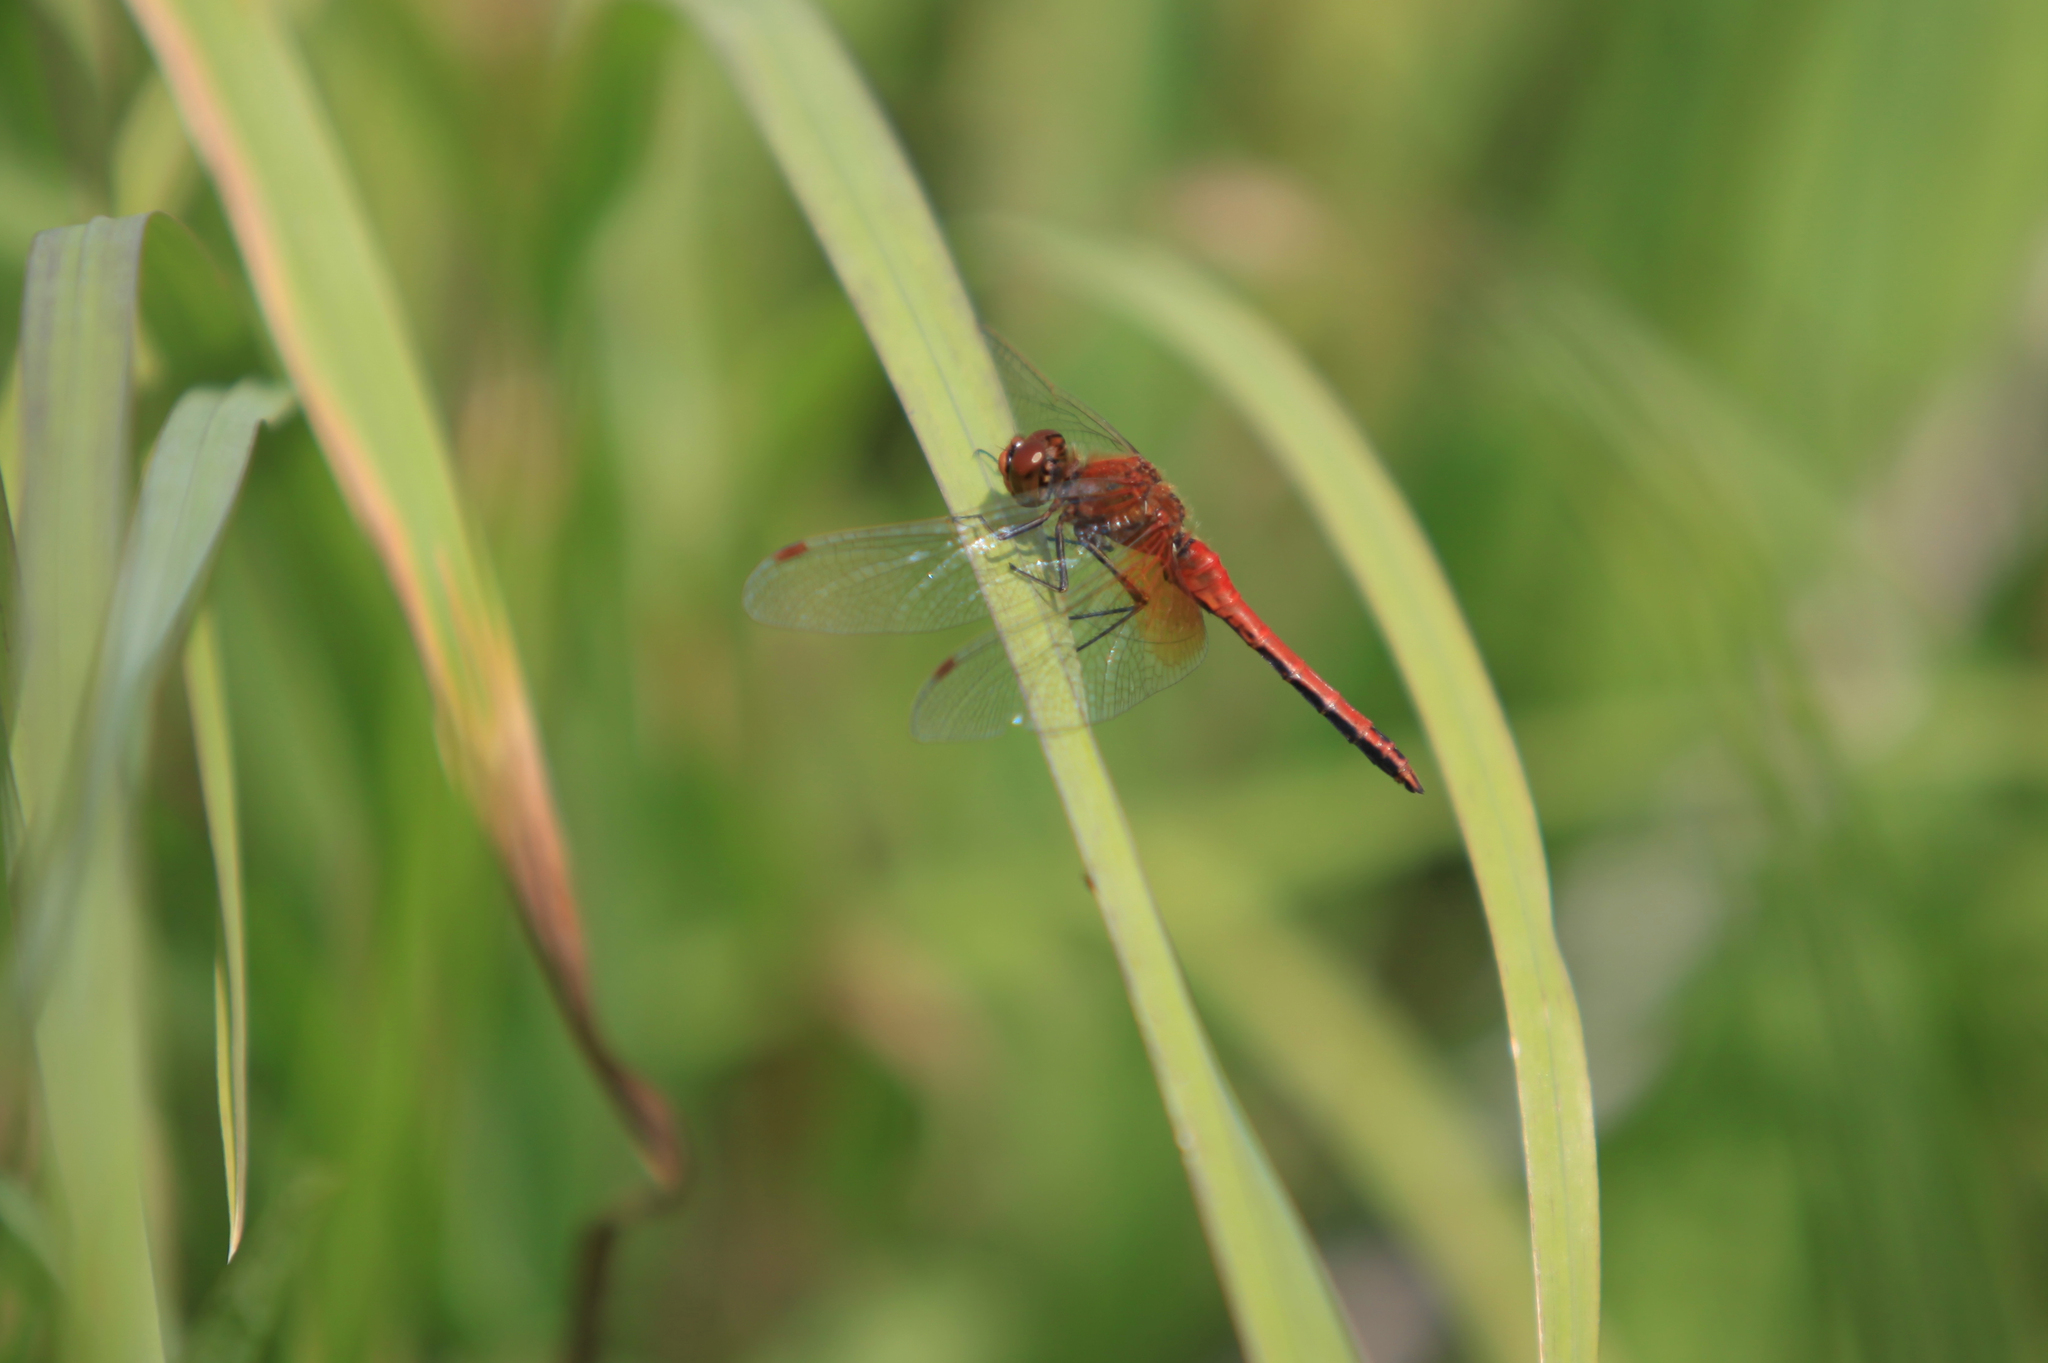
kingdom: Animalia
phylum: Arthropoda
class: Insecta
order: Odonata
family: Libellulidae
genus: Sympetrum
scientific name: Sympetrum flaveolum
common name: Yellow-winged darter
